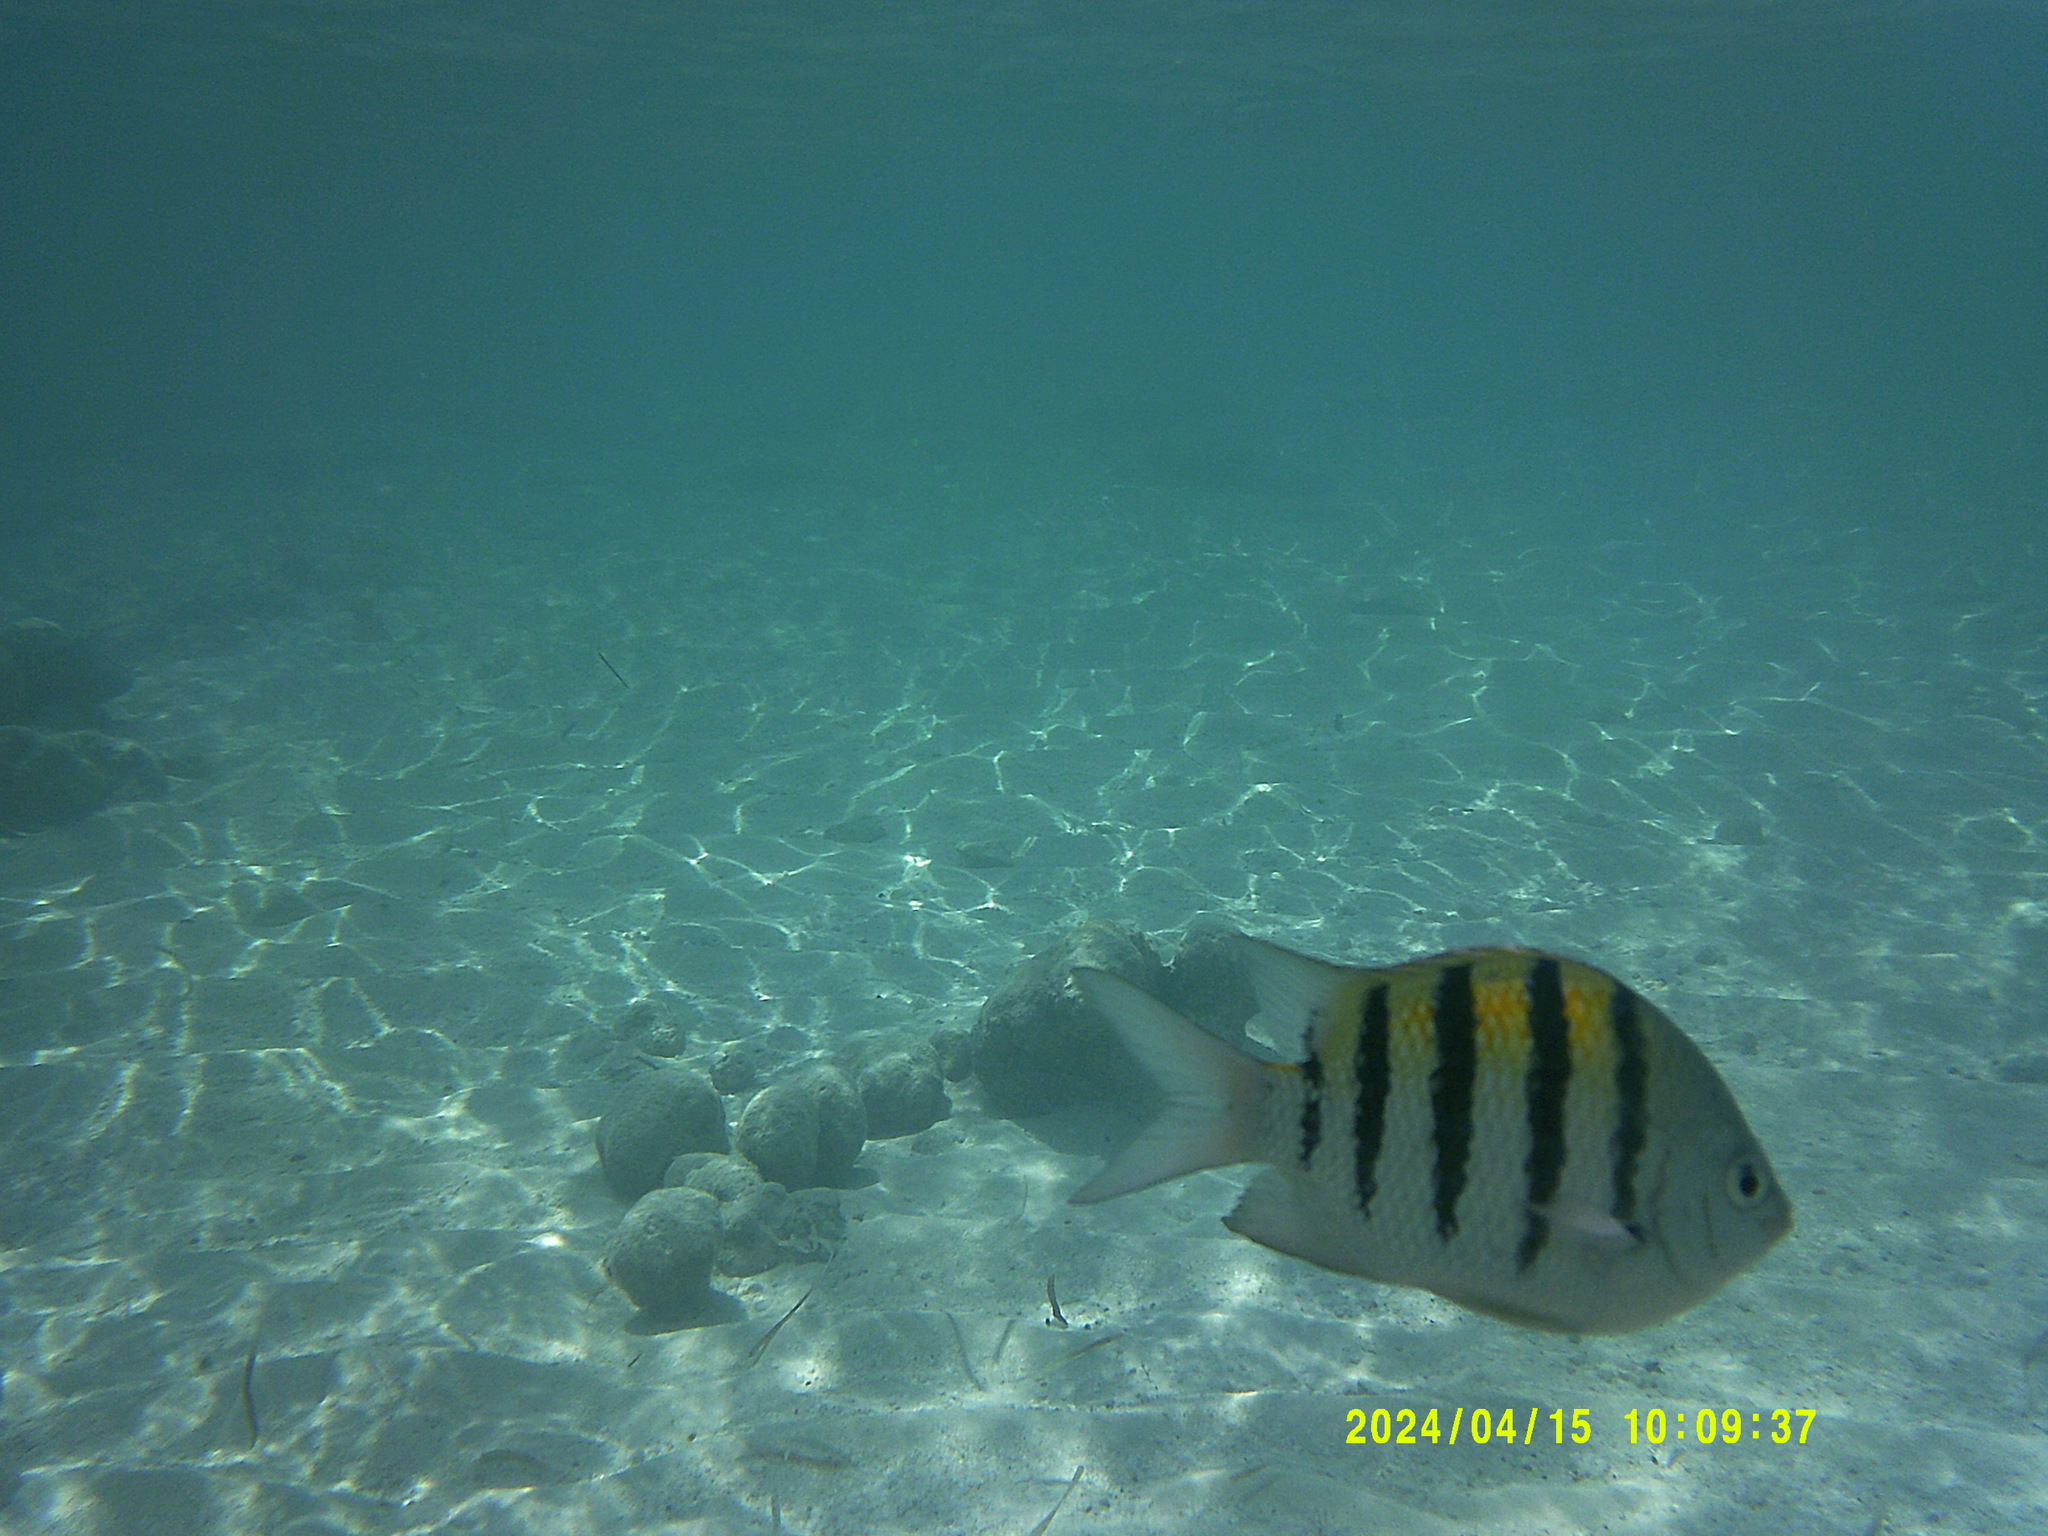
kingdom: Animalia
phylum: Chordata
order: Perciformes
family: Pomacentridae
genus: Abudefduf
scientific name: Abudefduf saxatilis
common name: Sergeant major
